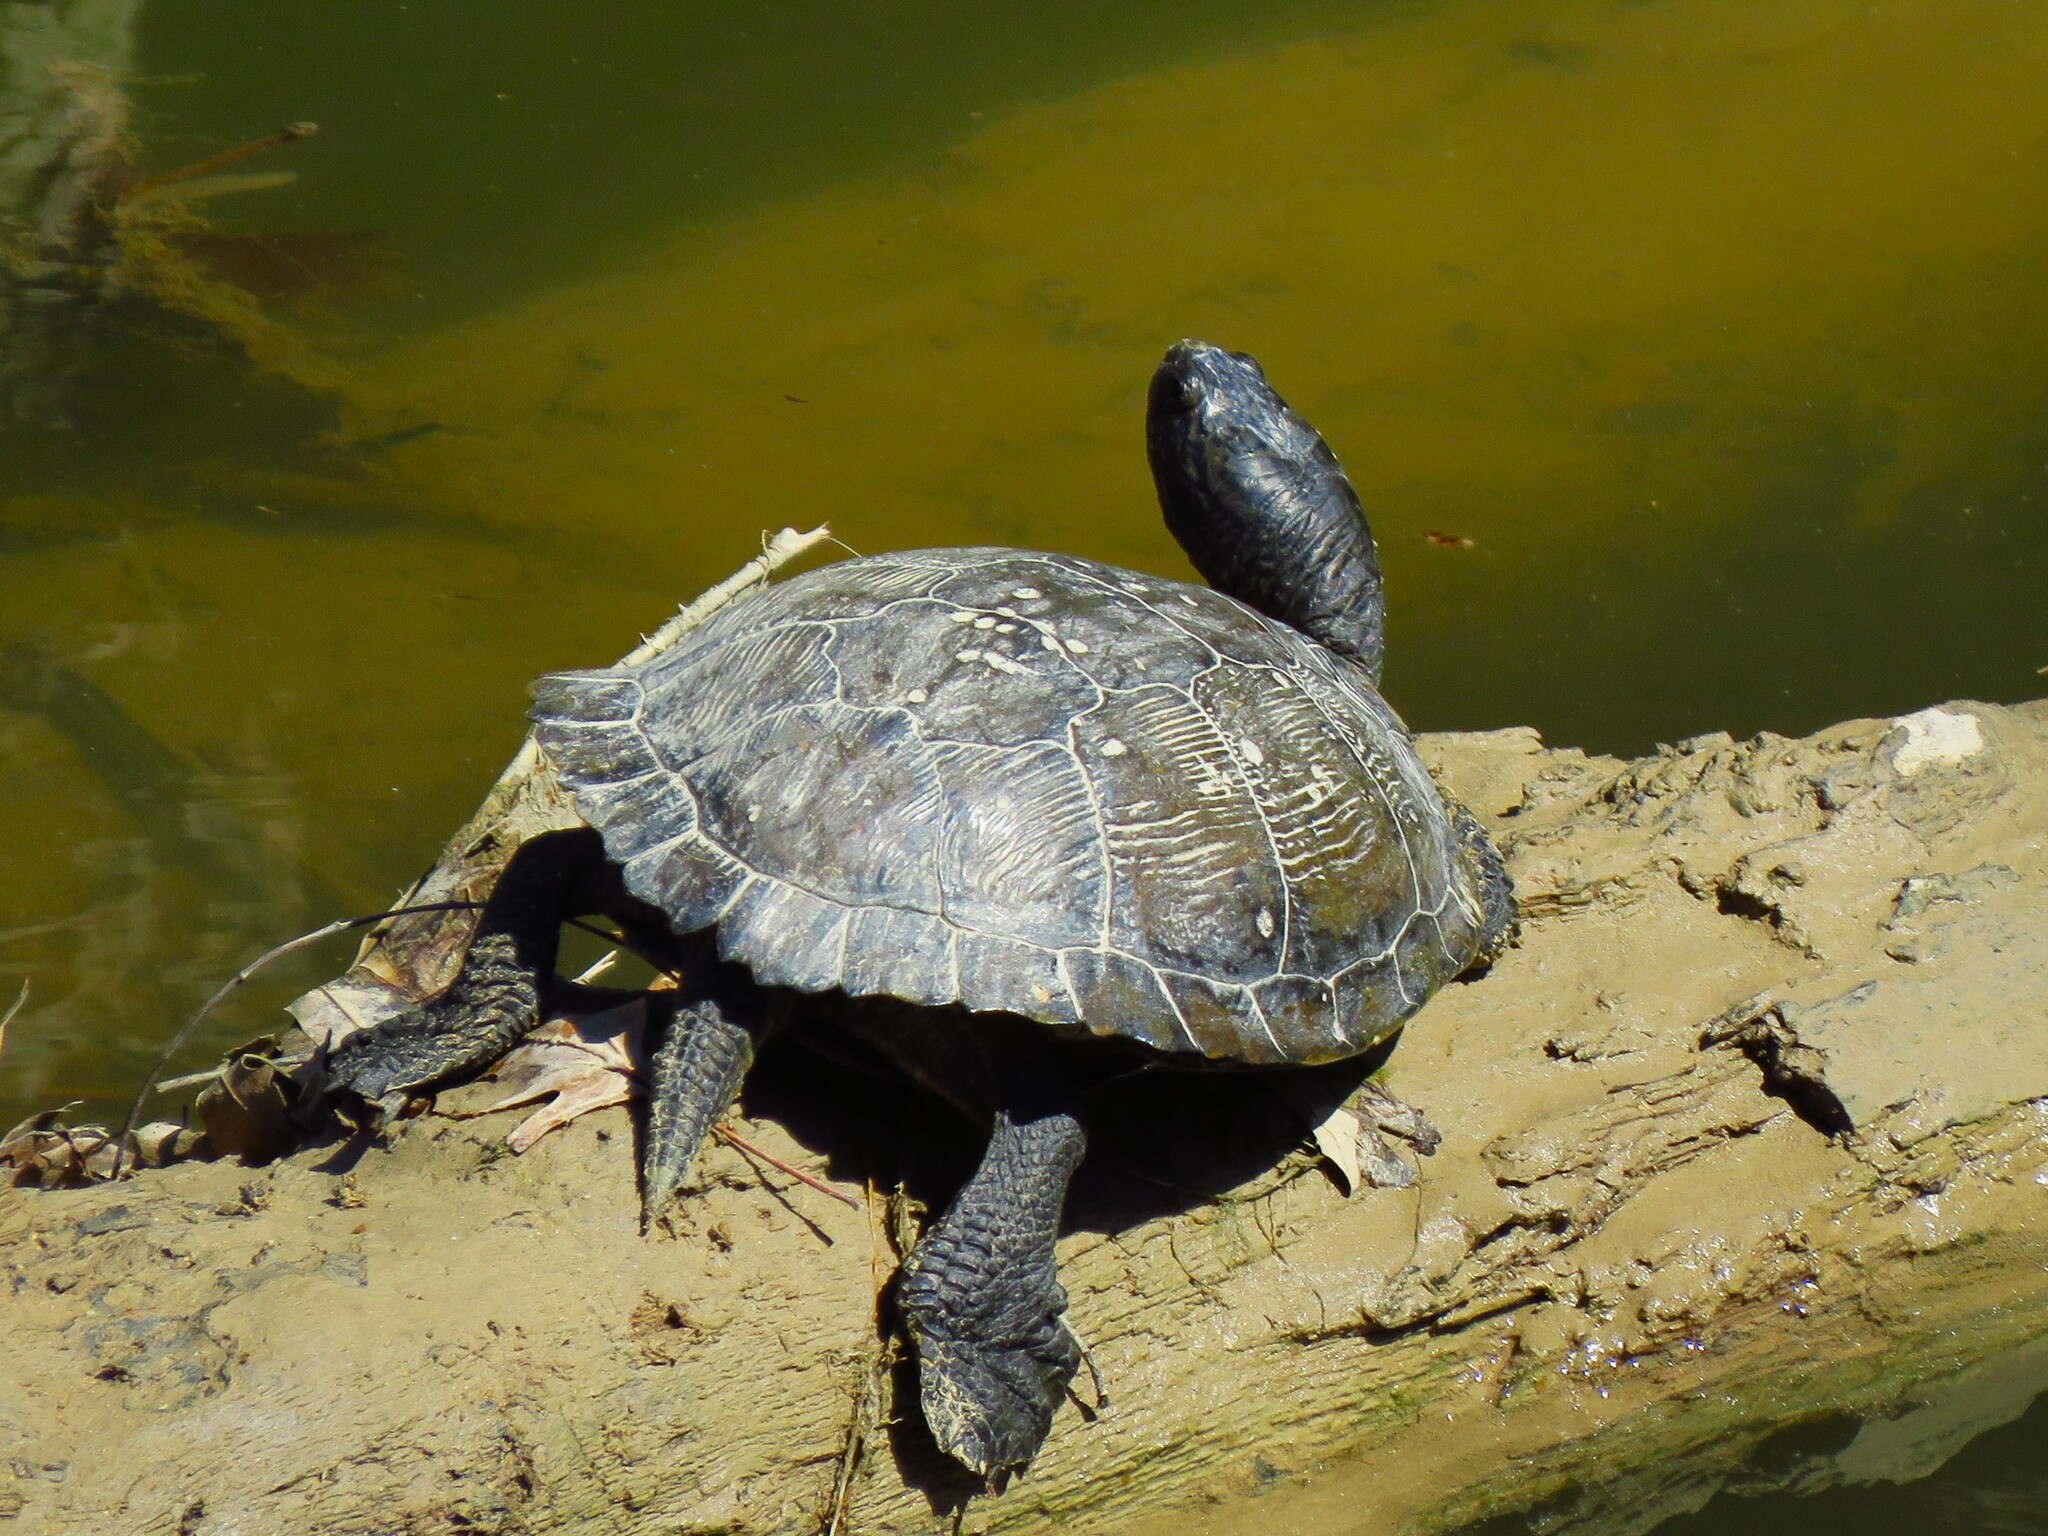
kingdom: Animalia
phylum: Chordata
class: Testudines
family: Emydidae
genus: Trachemys
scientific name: Trachemys scripta
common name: Slider
